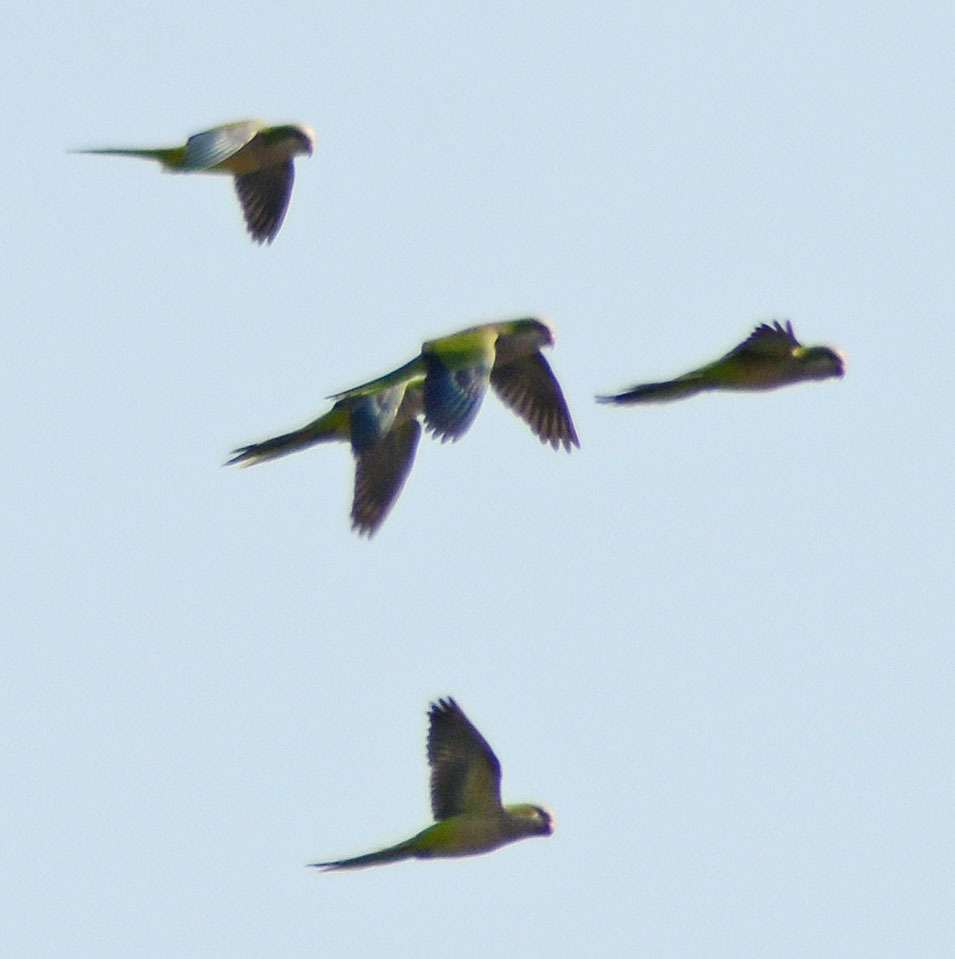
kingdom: Animalia
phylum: Chordata
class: Aves
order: Psittaciformes
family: Psittacidae
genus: Myiopsitta
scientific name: Myiopsitta monachus
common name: Monk parakeet
